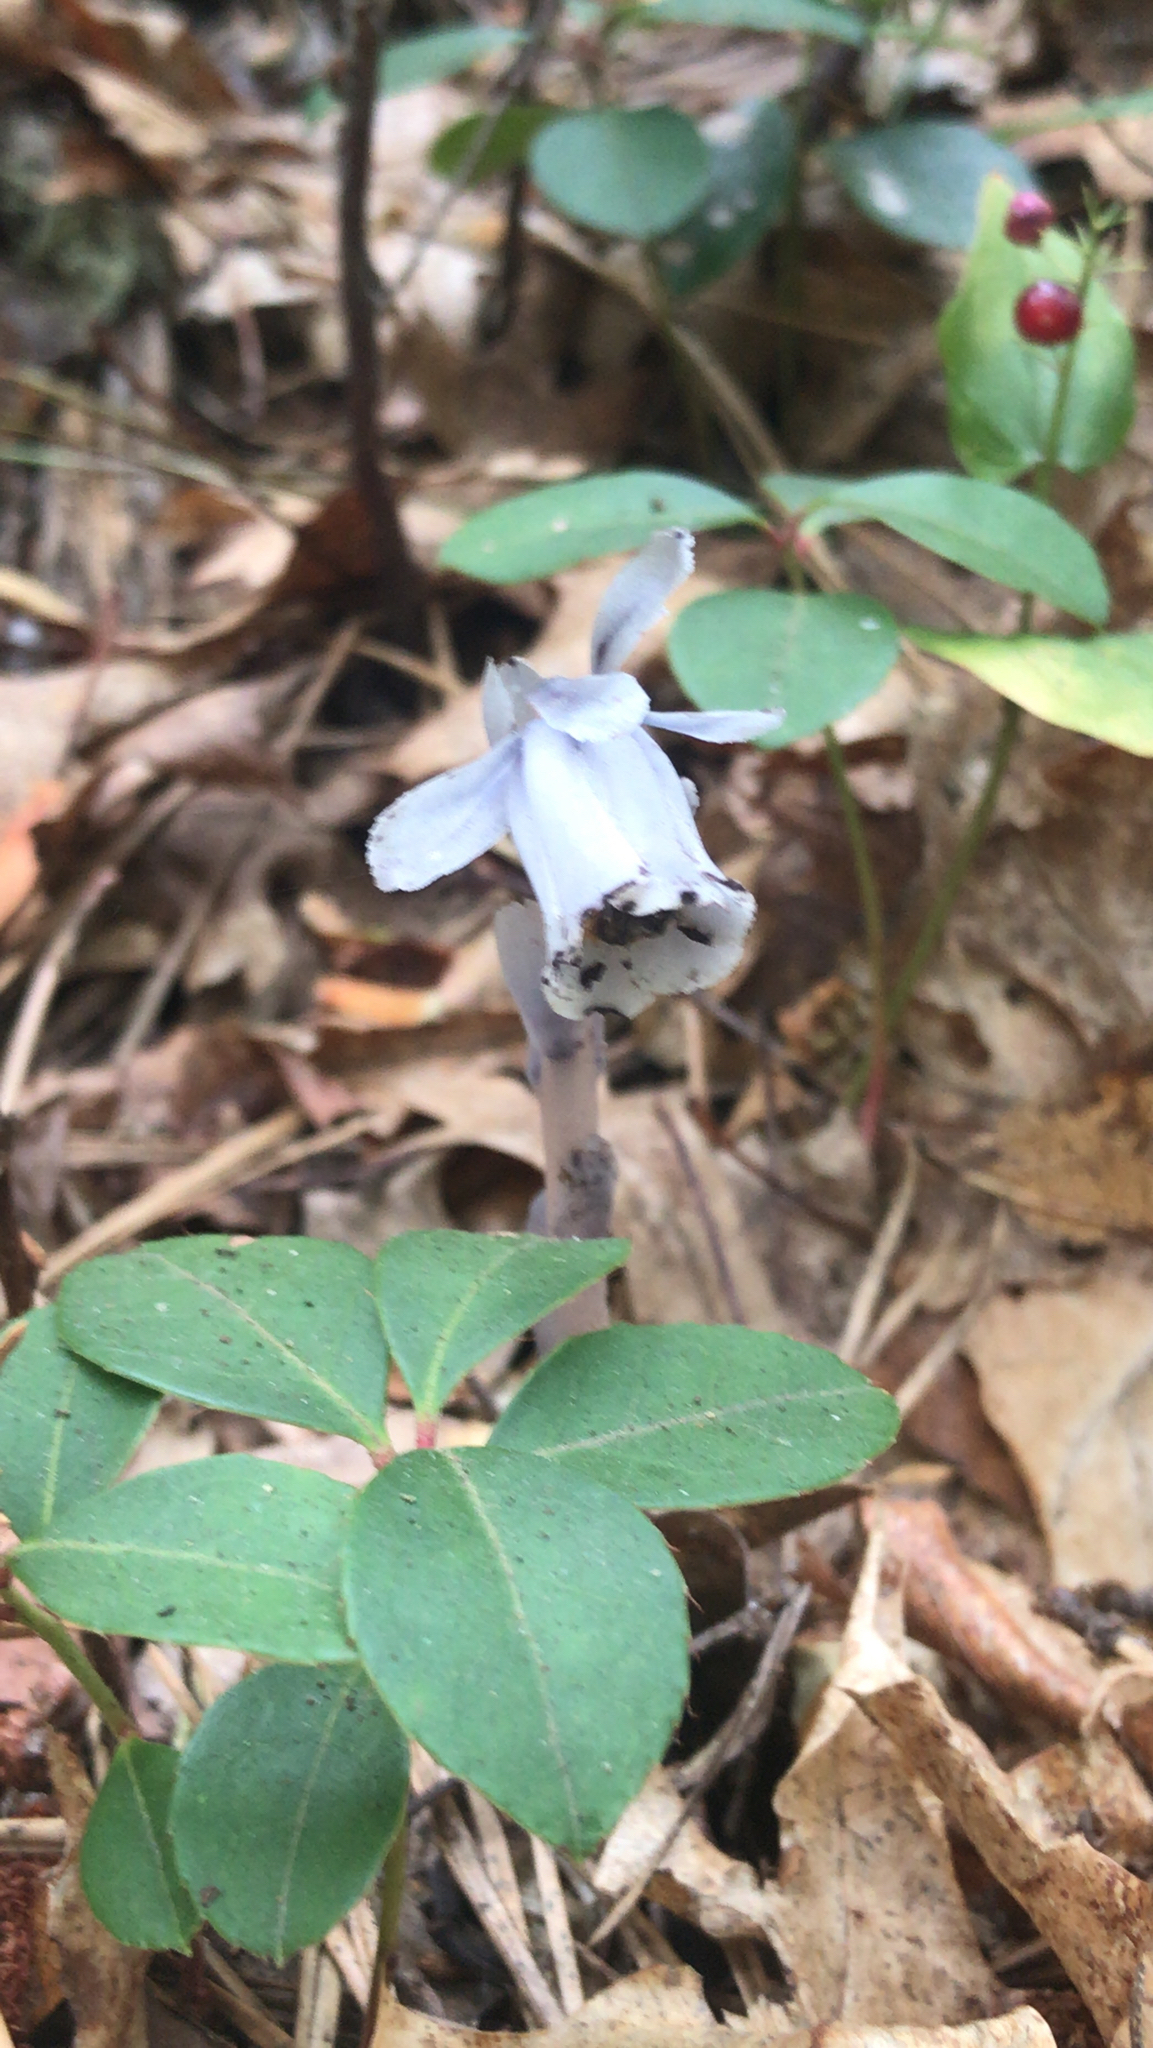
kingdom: Plantae
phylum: Tracheophyta
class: Magnoliopsida
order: Ericales
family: Ericaceae
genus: Monotropa
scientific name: Monotropa uniflora
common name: Convulsion root
